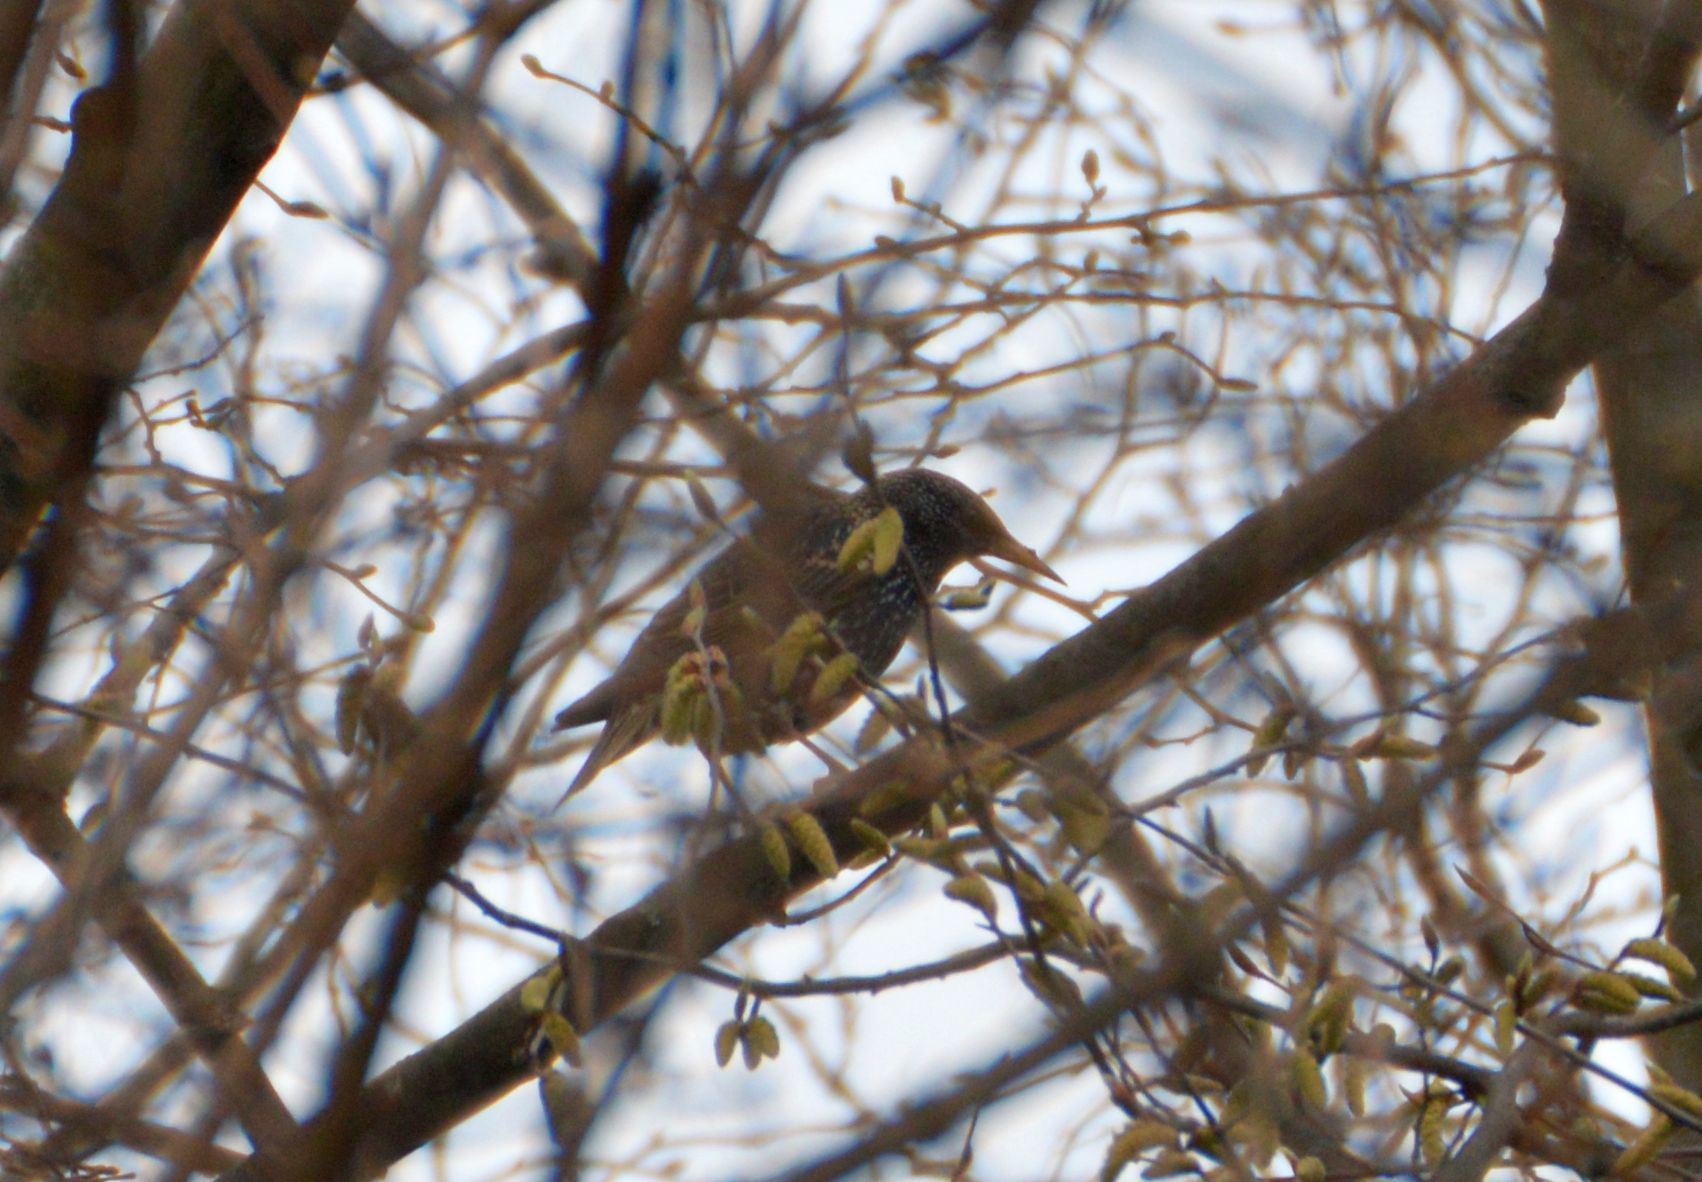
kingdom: Animalia
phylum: Chordata
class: Aves
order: Passeriformes
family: Sturnidae
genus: Sturnus
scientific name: Sturnus vulgaris
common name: Common starling
